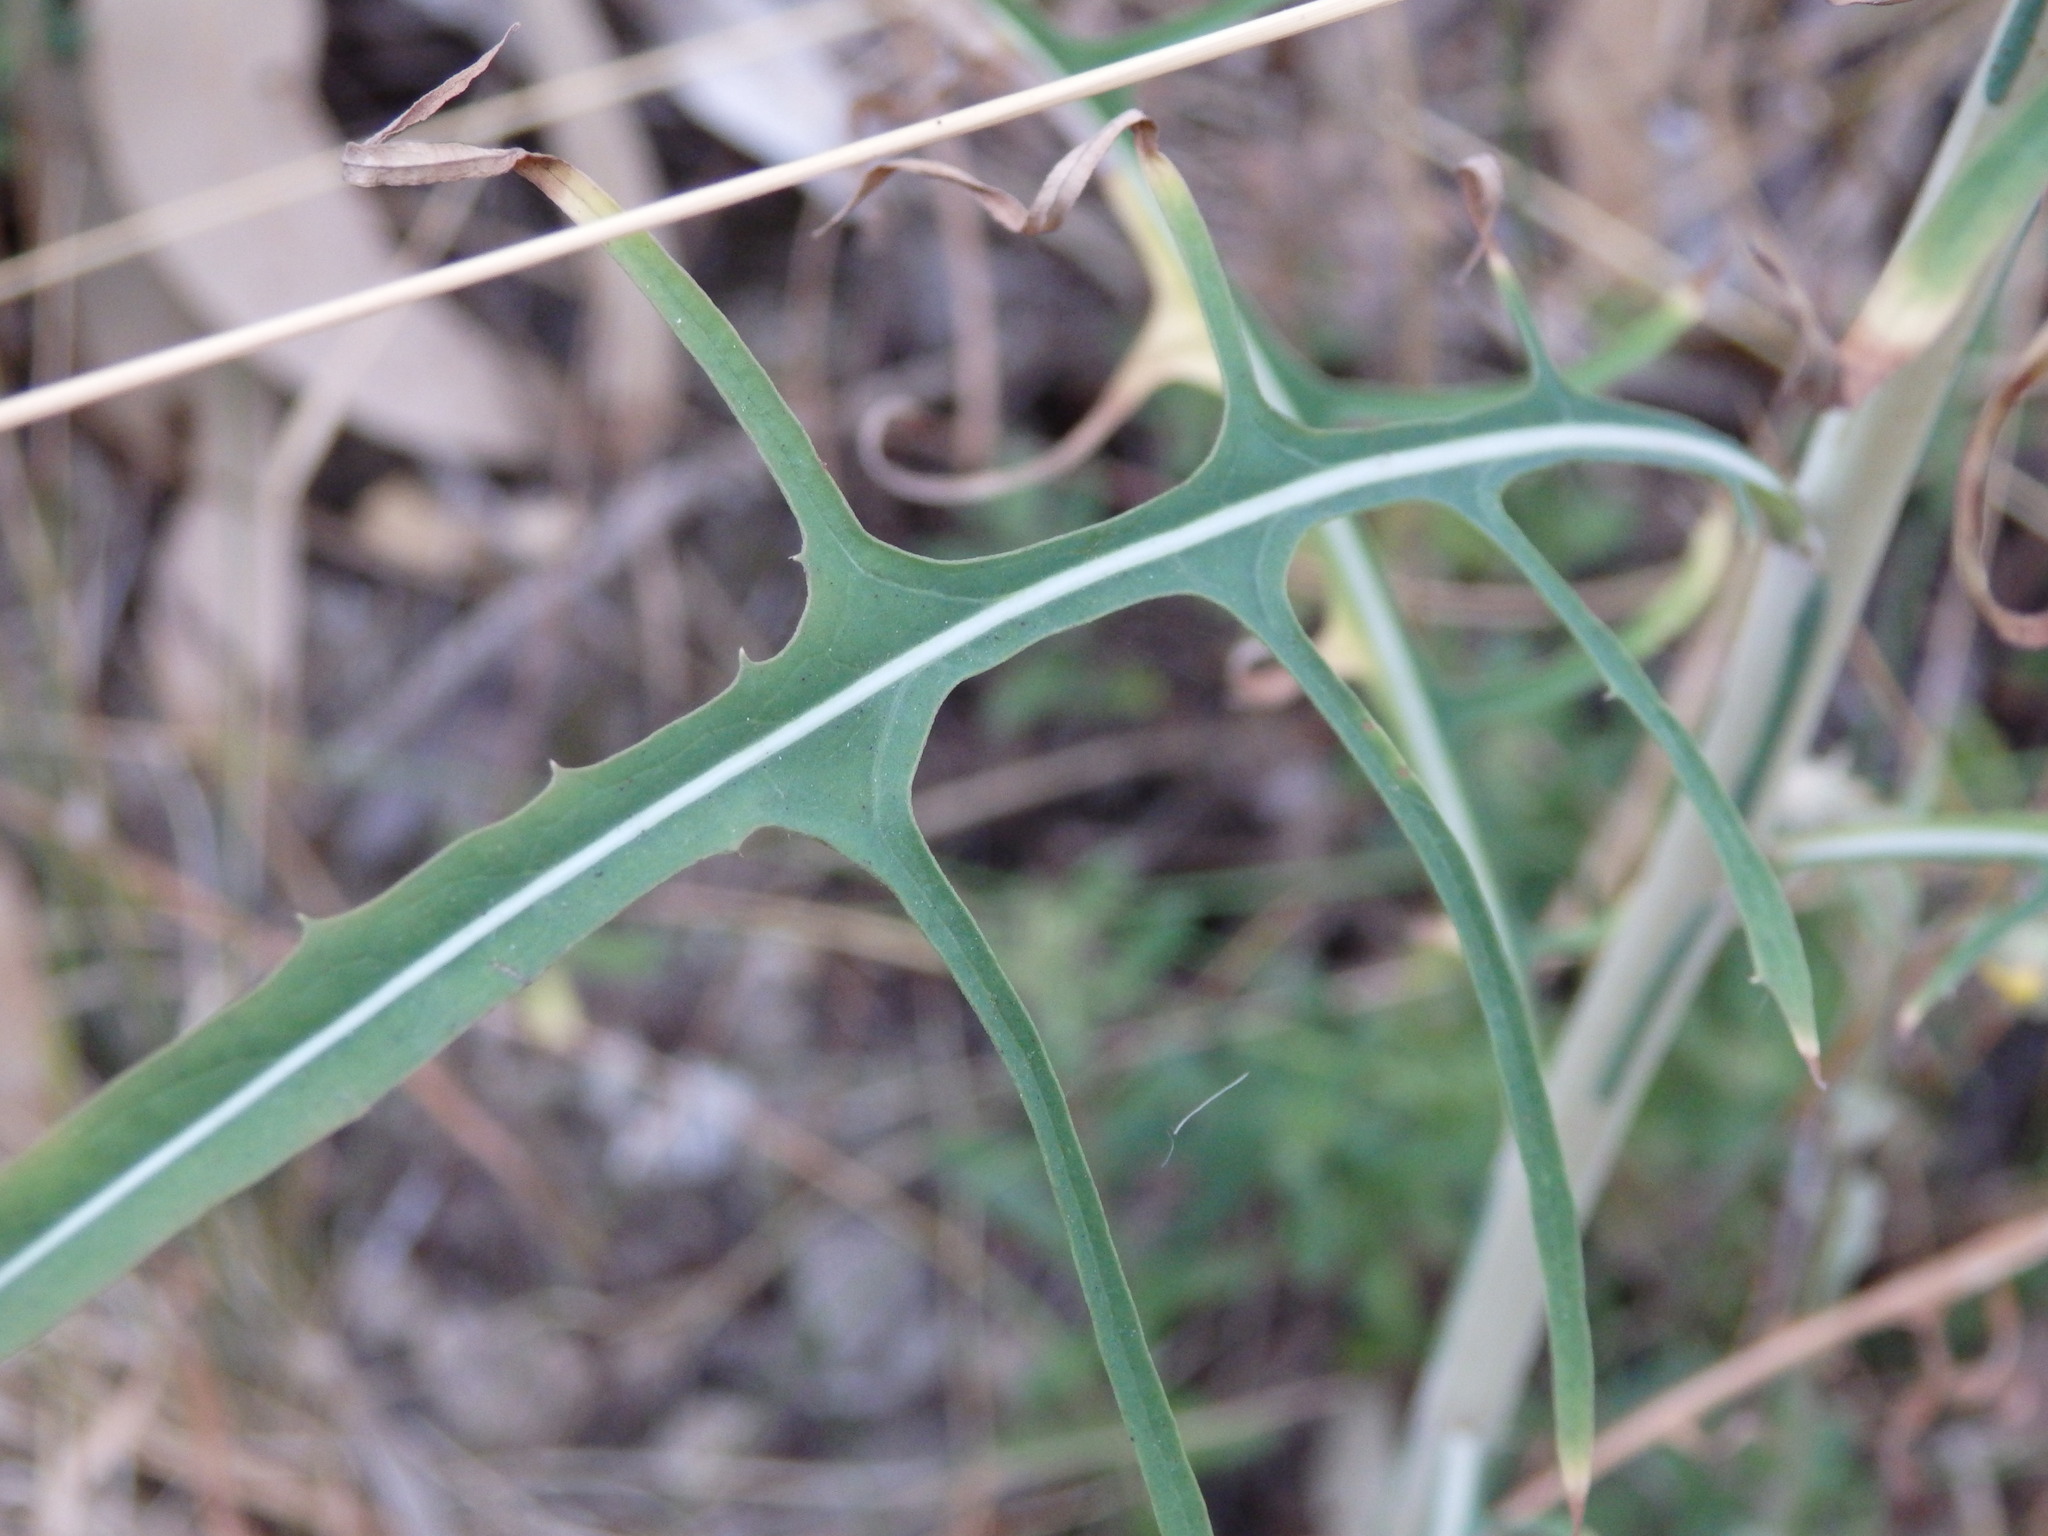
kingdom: Plantae
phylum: Tracheophyta
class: Magnoliopsida
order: Asterales
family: Asteraceae
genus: Lactuca
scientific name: Lactuca viminea
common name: Pliant lettuce
